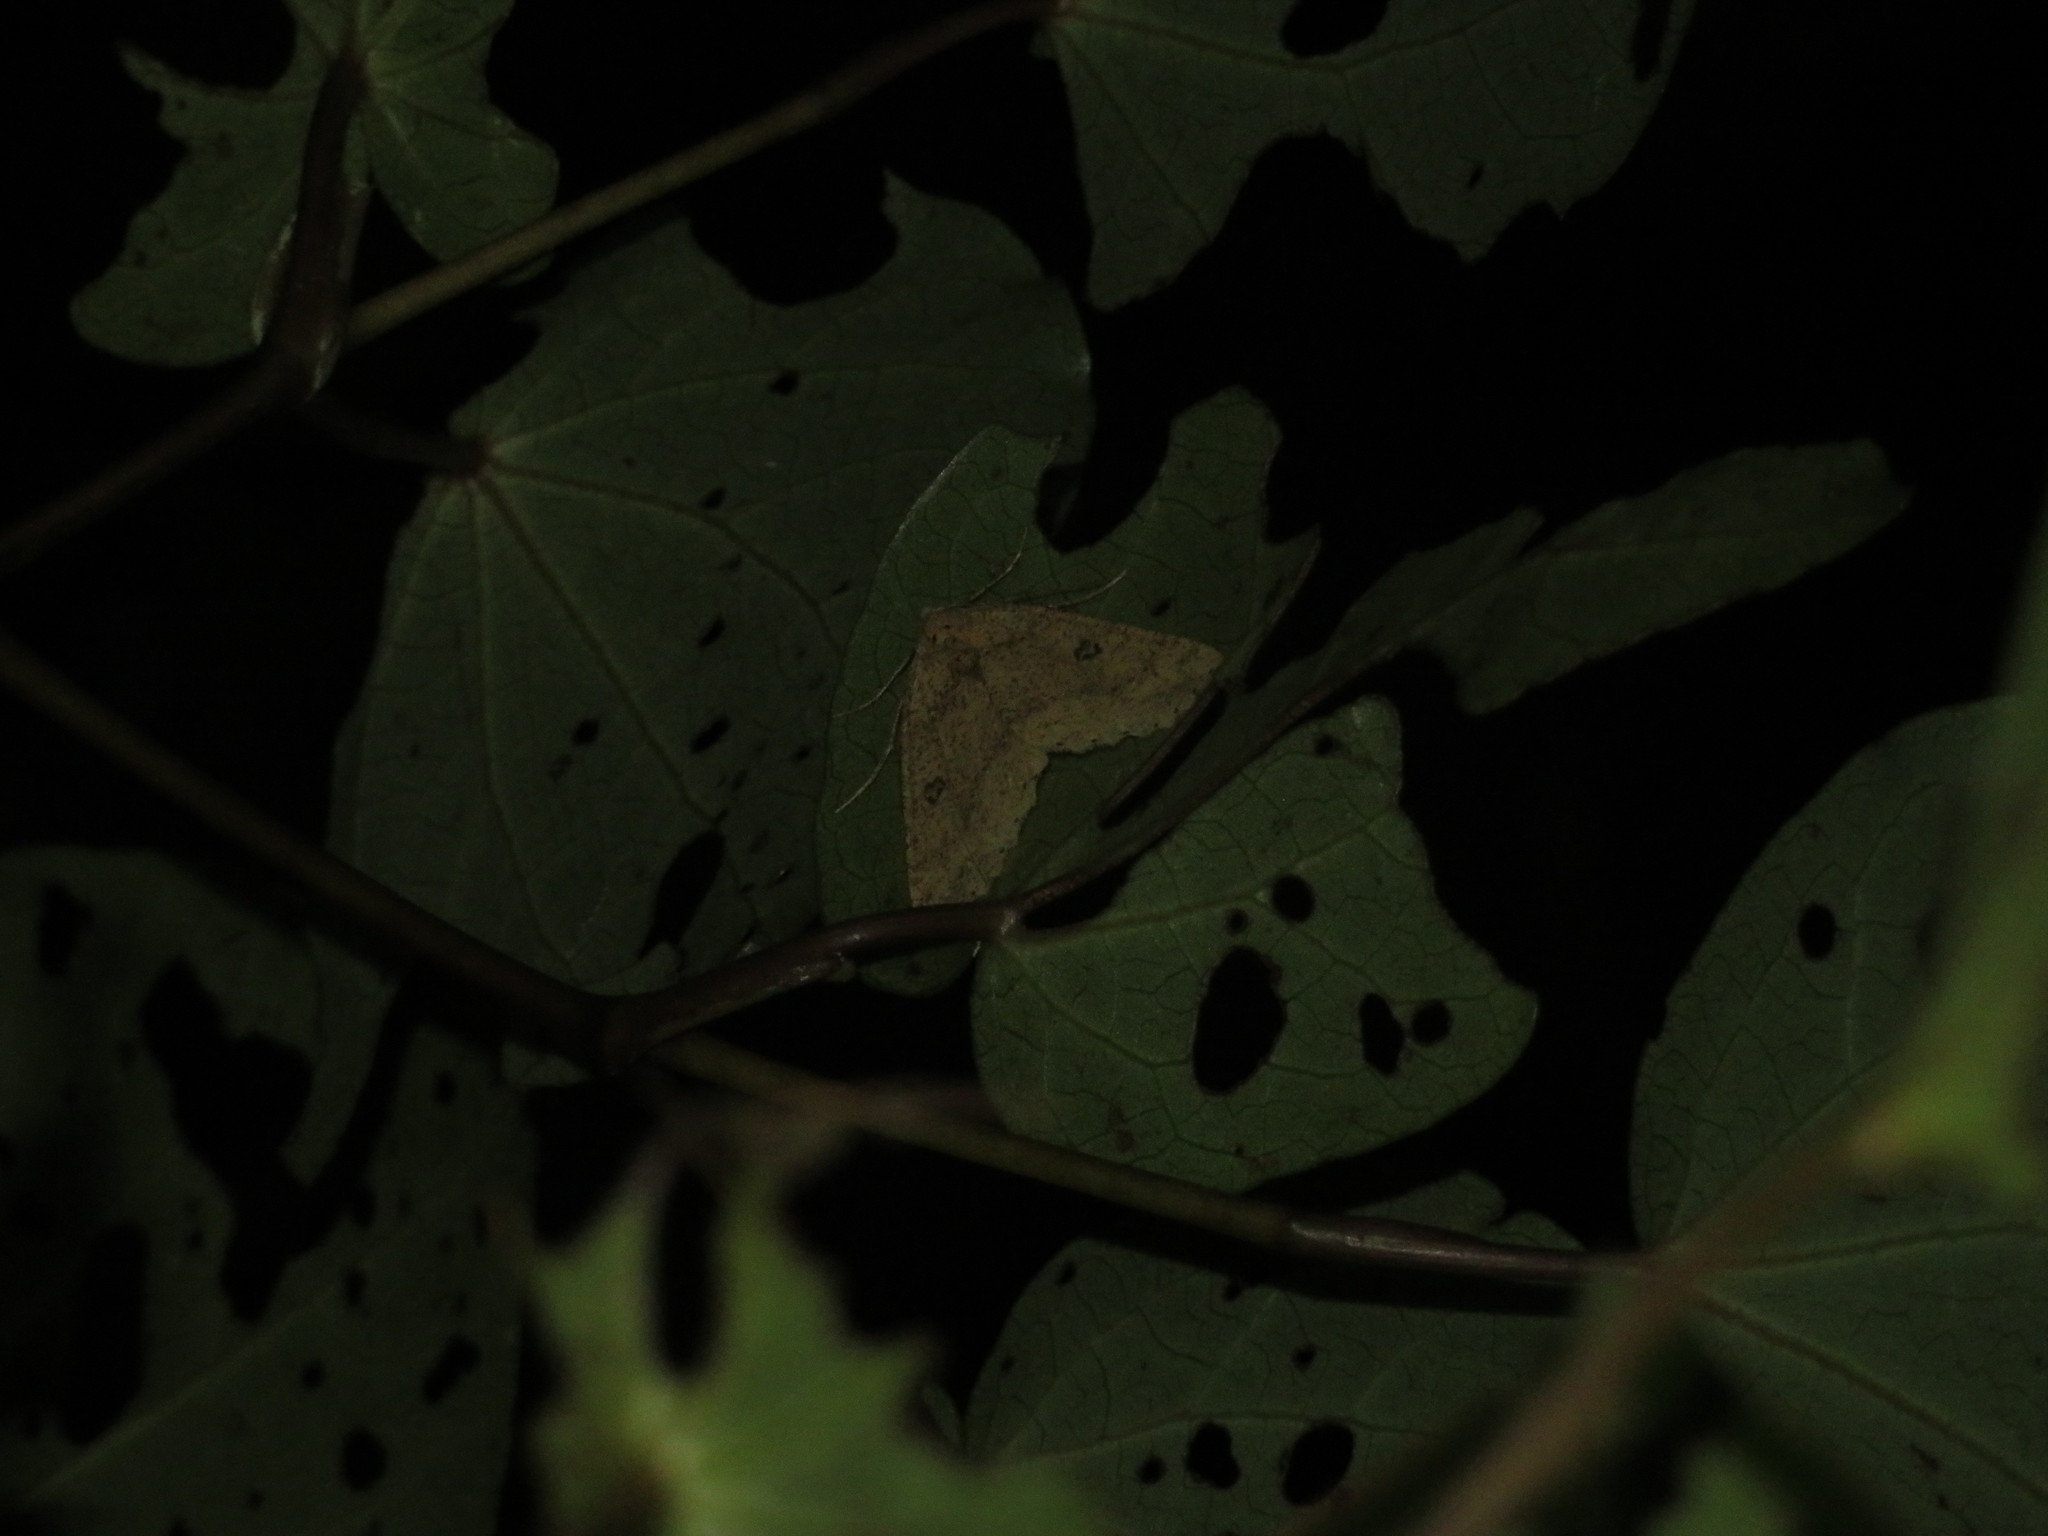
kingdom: Animalia
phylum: Arthropoda
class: Insecta
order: Lepidoptera
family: Geometridae
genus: Cleora
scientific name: Cleora scriptaria
